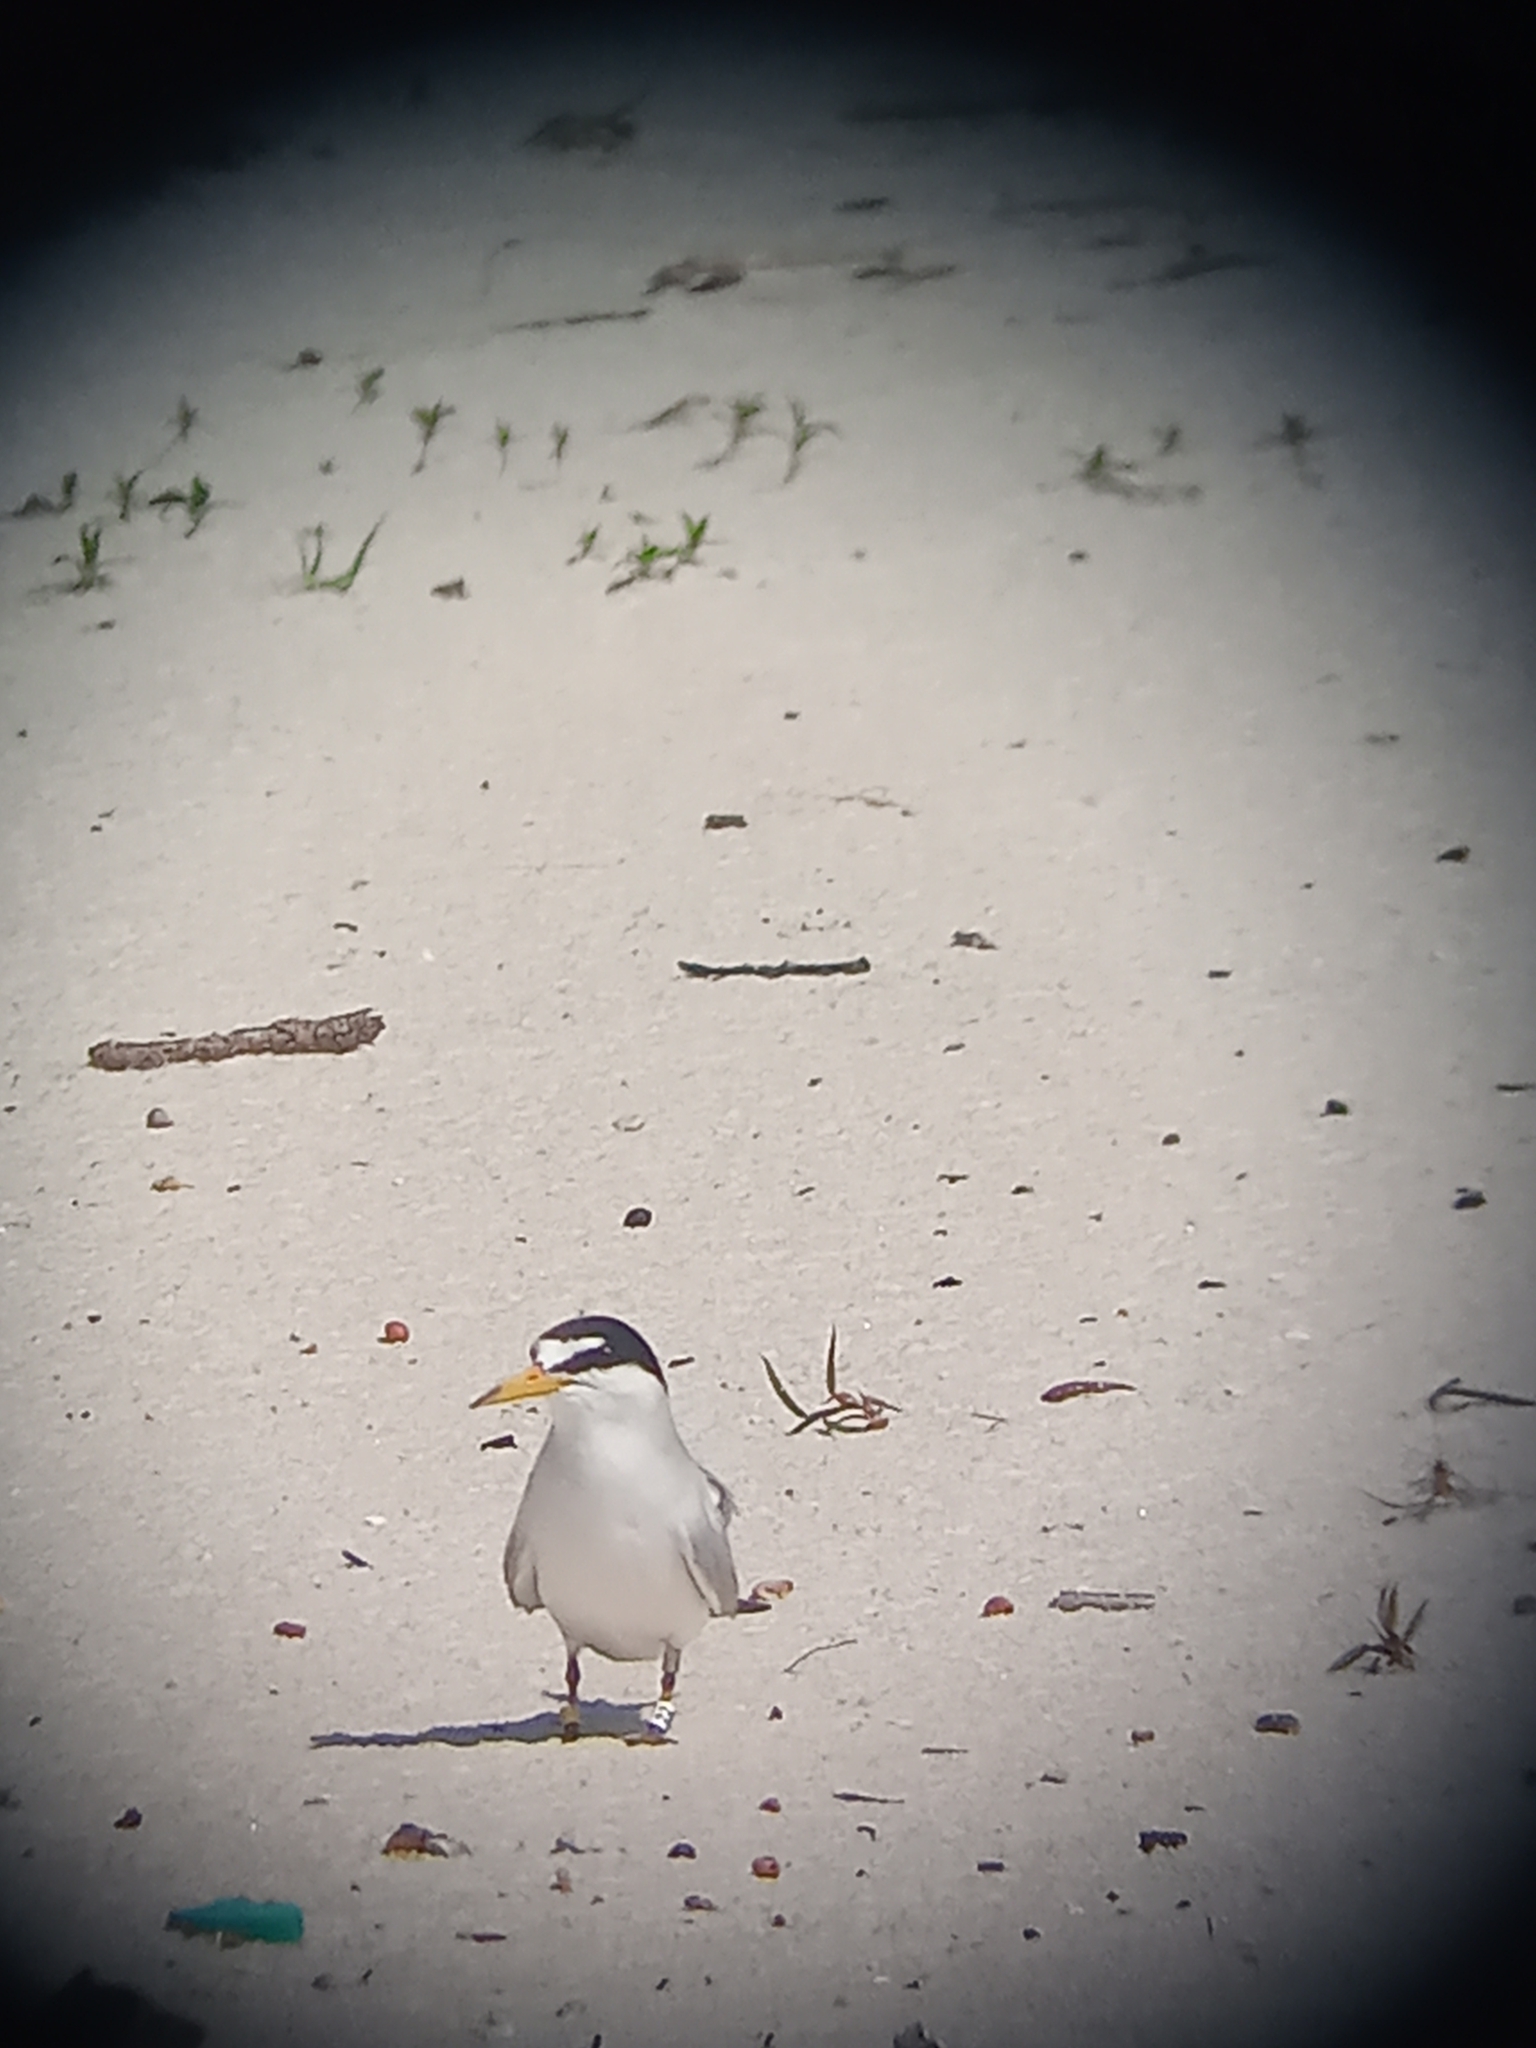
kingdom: Animalia
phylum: Chordata
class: Aves
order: Charadriiformes
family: Laridae
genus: Sternula
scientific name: Sternula antillarum
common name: Least tern
